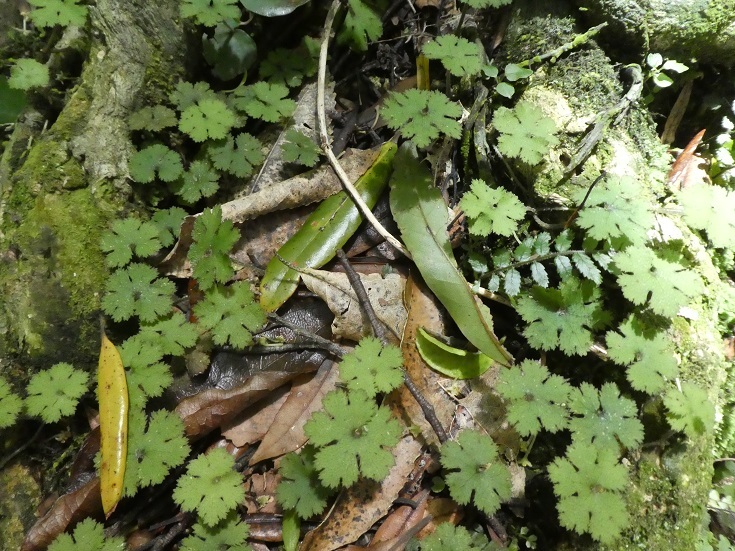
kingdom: Plantae
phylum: Tracheophyta
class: Magnoliopsida
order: Apiales
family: Araliaceae
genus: Hydrocotyle
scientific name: Hydrocotyle elongata
